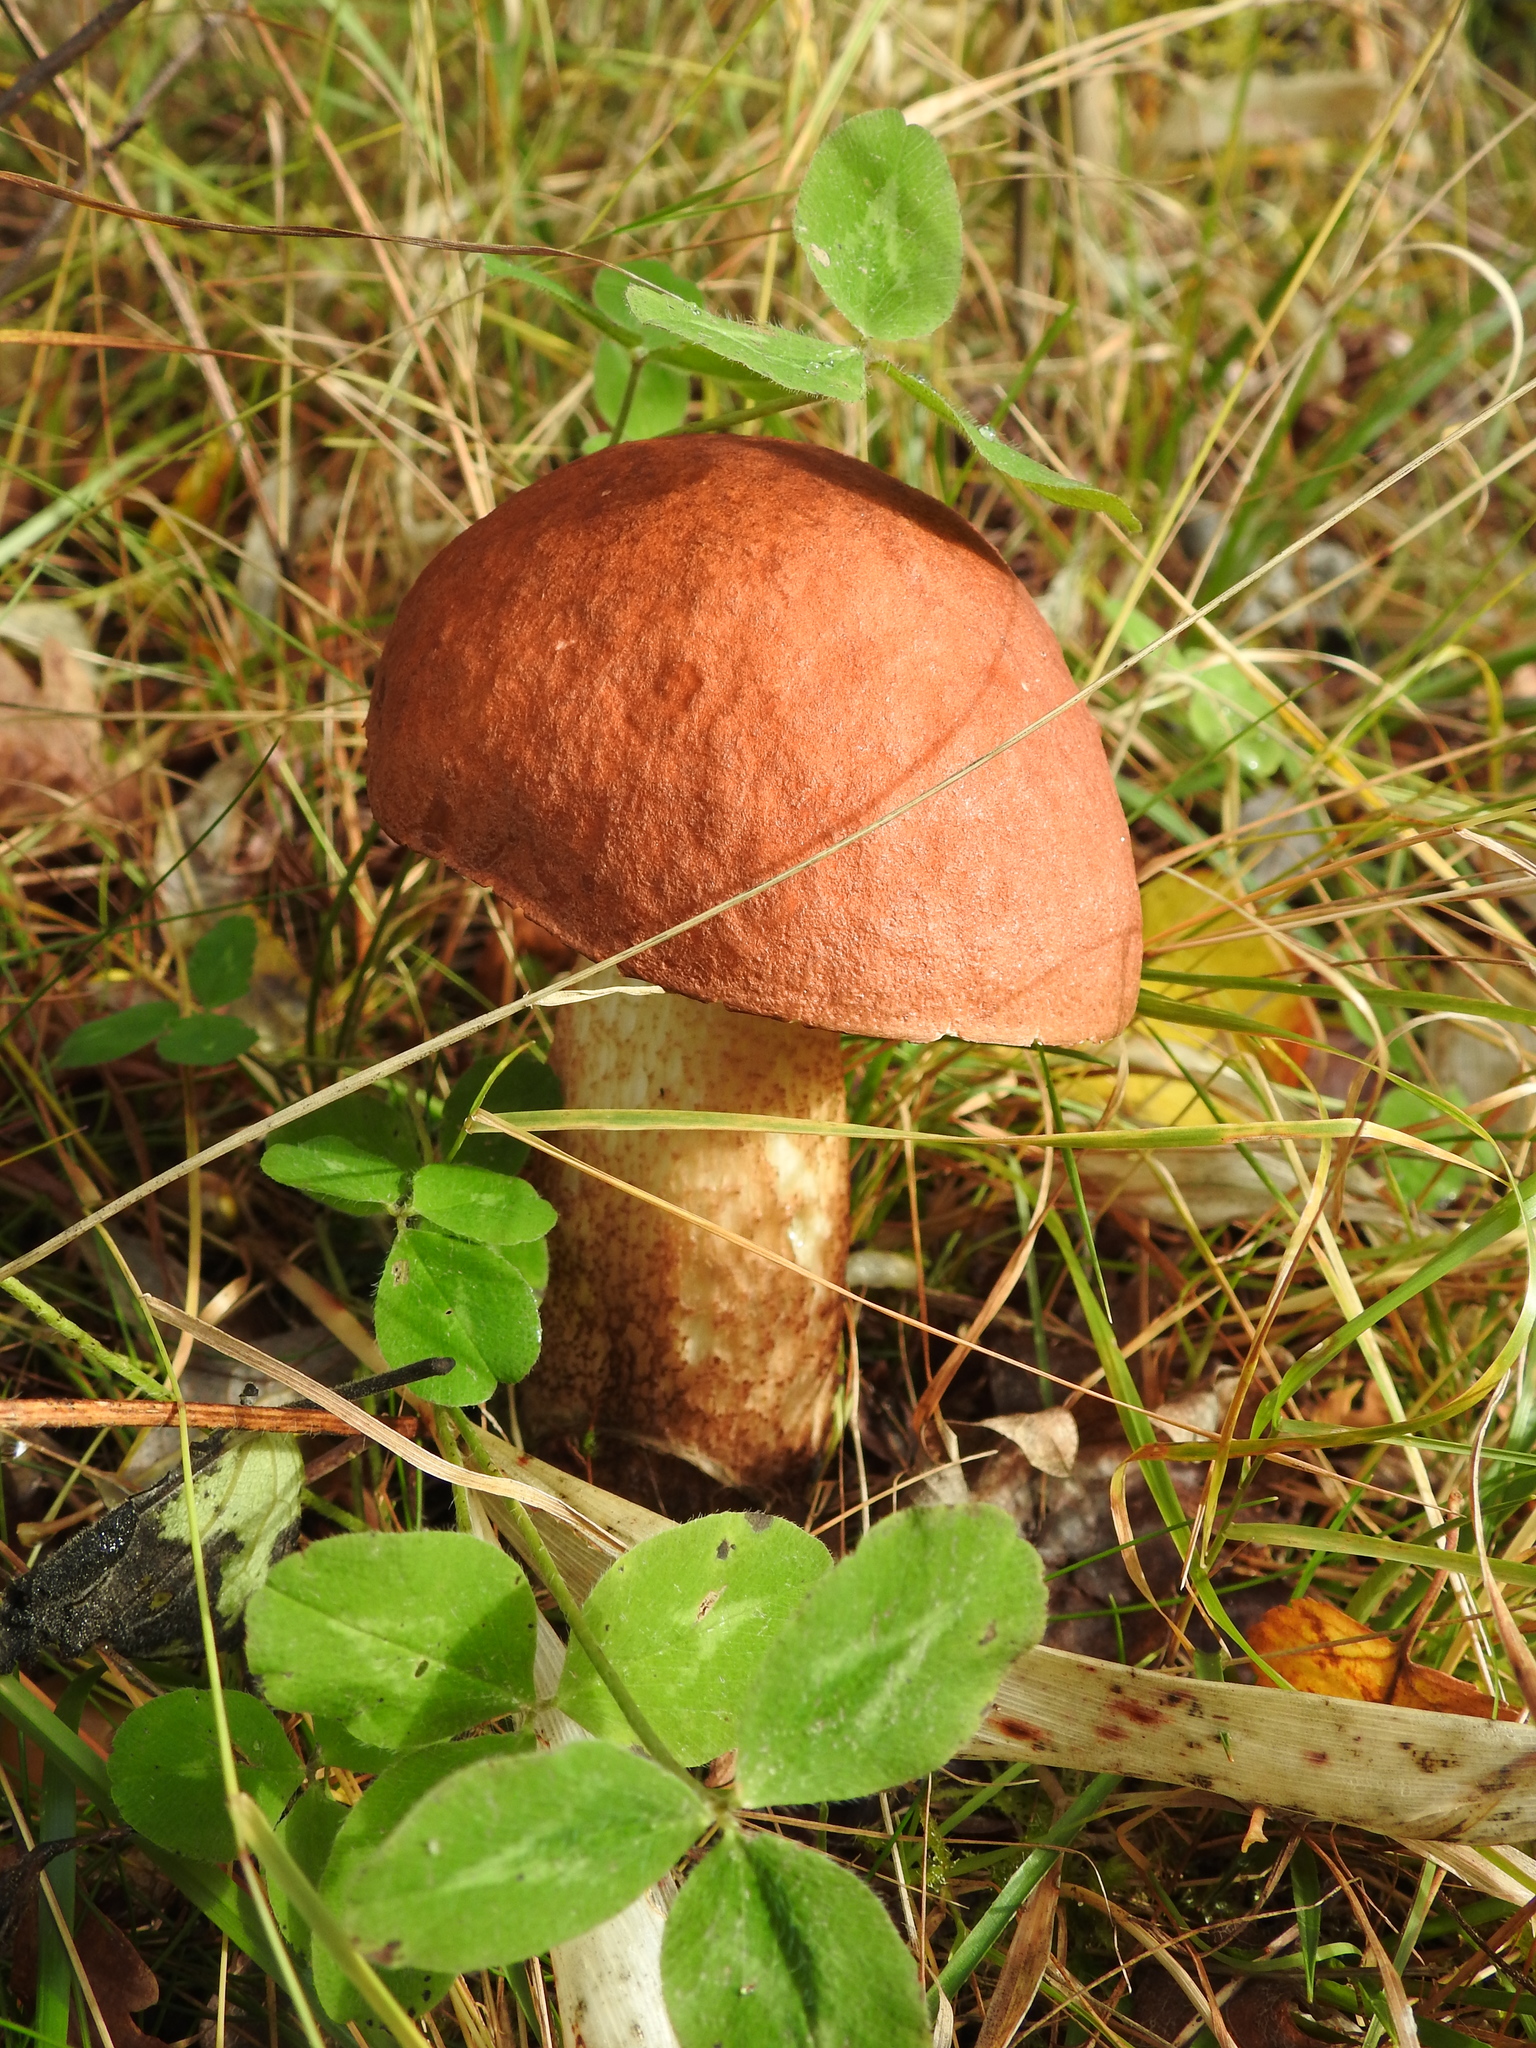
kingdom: Fungi
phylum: Basidiomycota
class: Agaricomycetes
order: Boletales
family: Boletaceae
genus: Leccinum
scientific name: Leccinum versipelle
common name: Orange birch bolete
